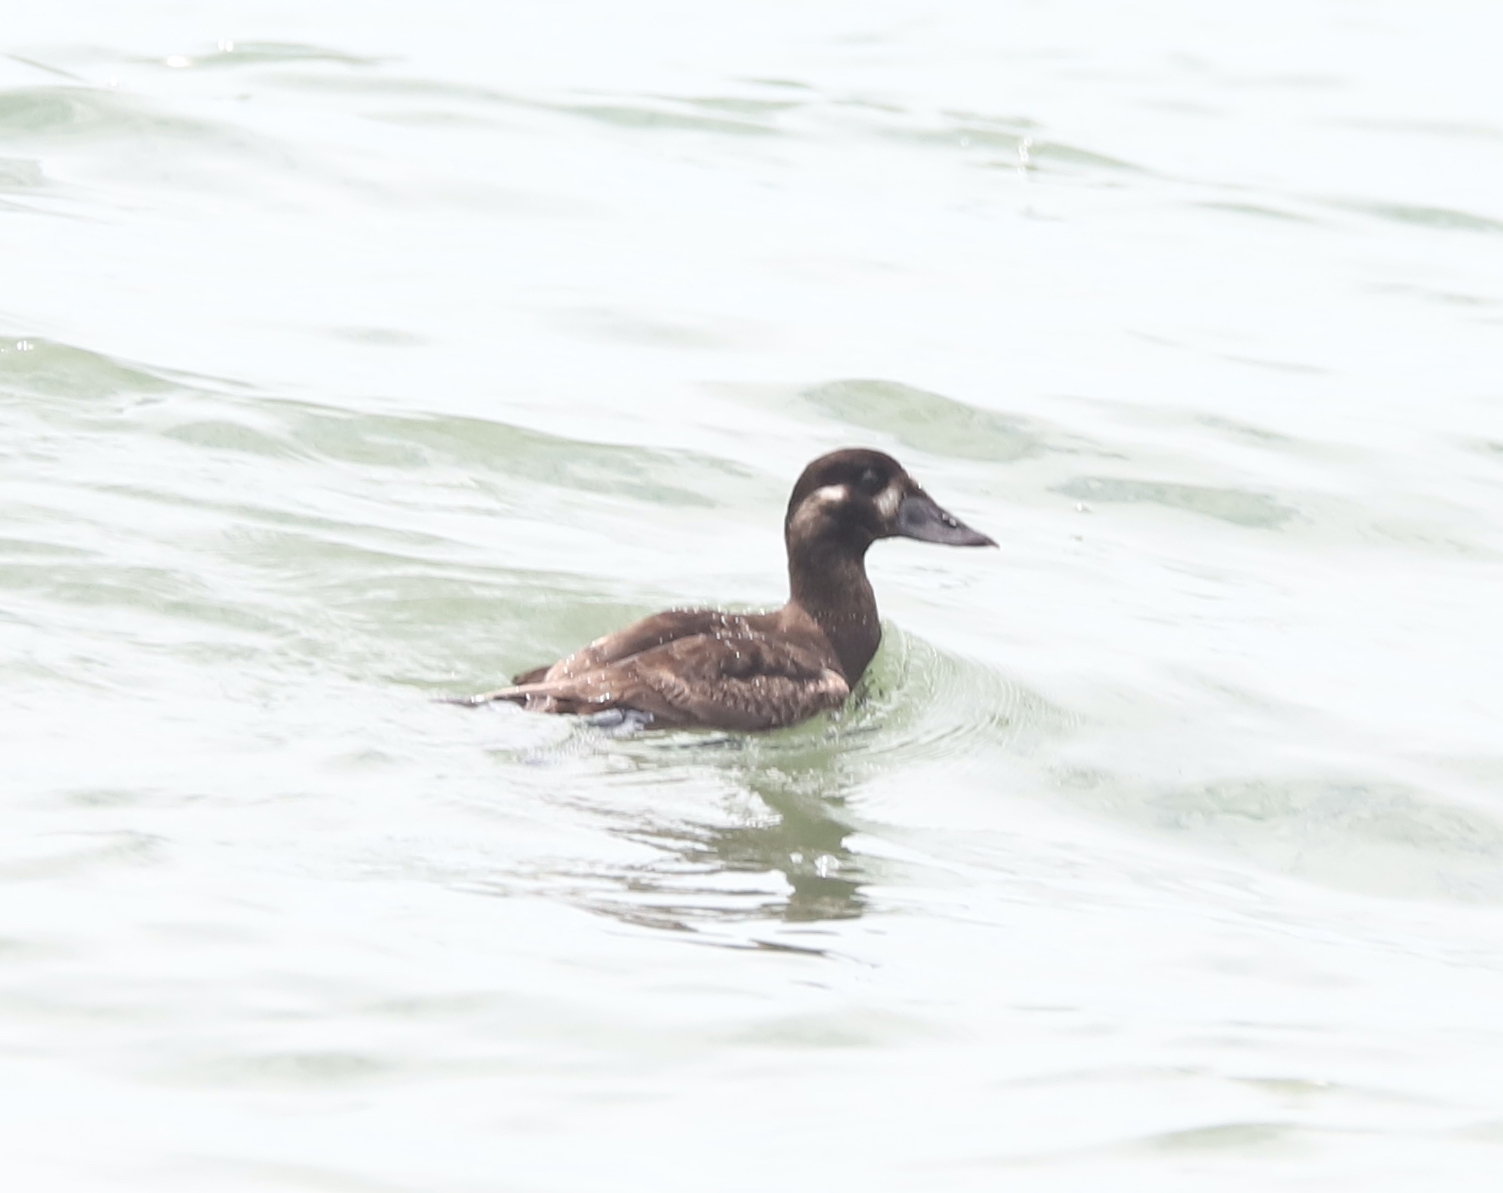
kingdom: Animalia
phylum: Chordata
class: Aves
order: Anseriformes
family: Anatidae
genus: Melanitta
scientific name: Melanitta perspicillata
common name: Surf scoter
